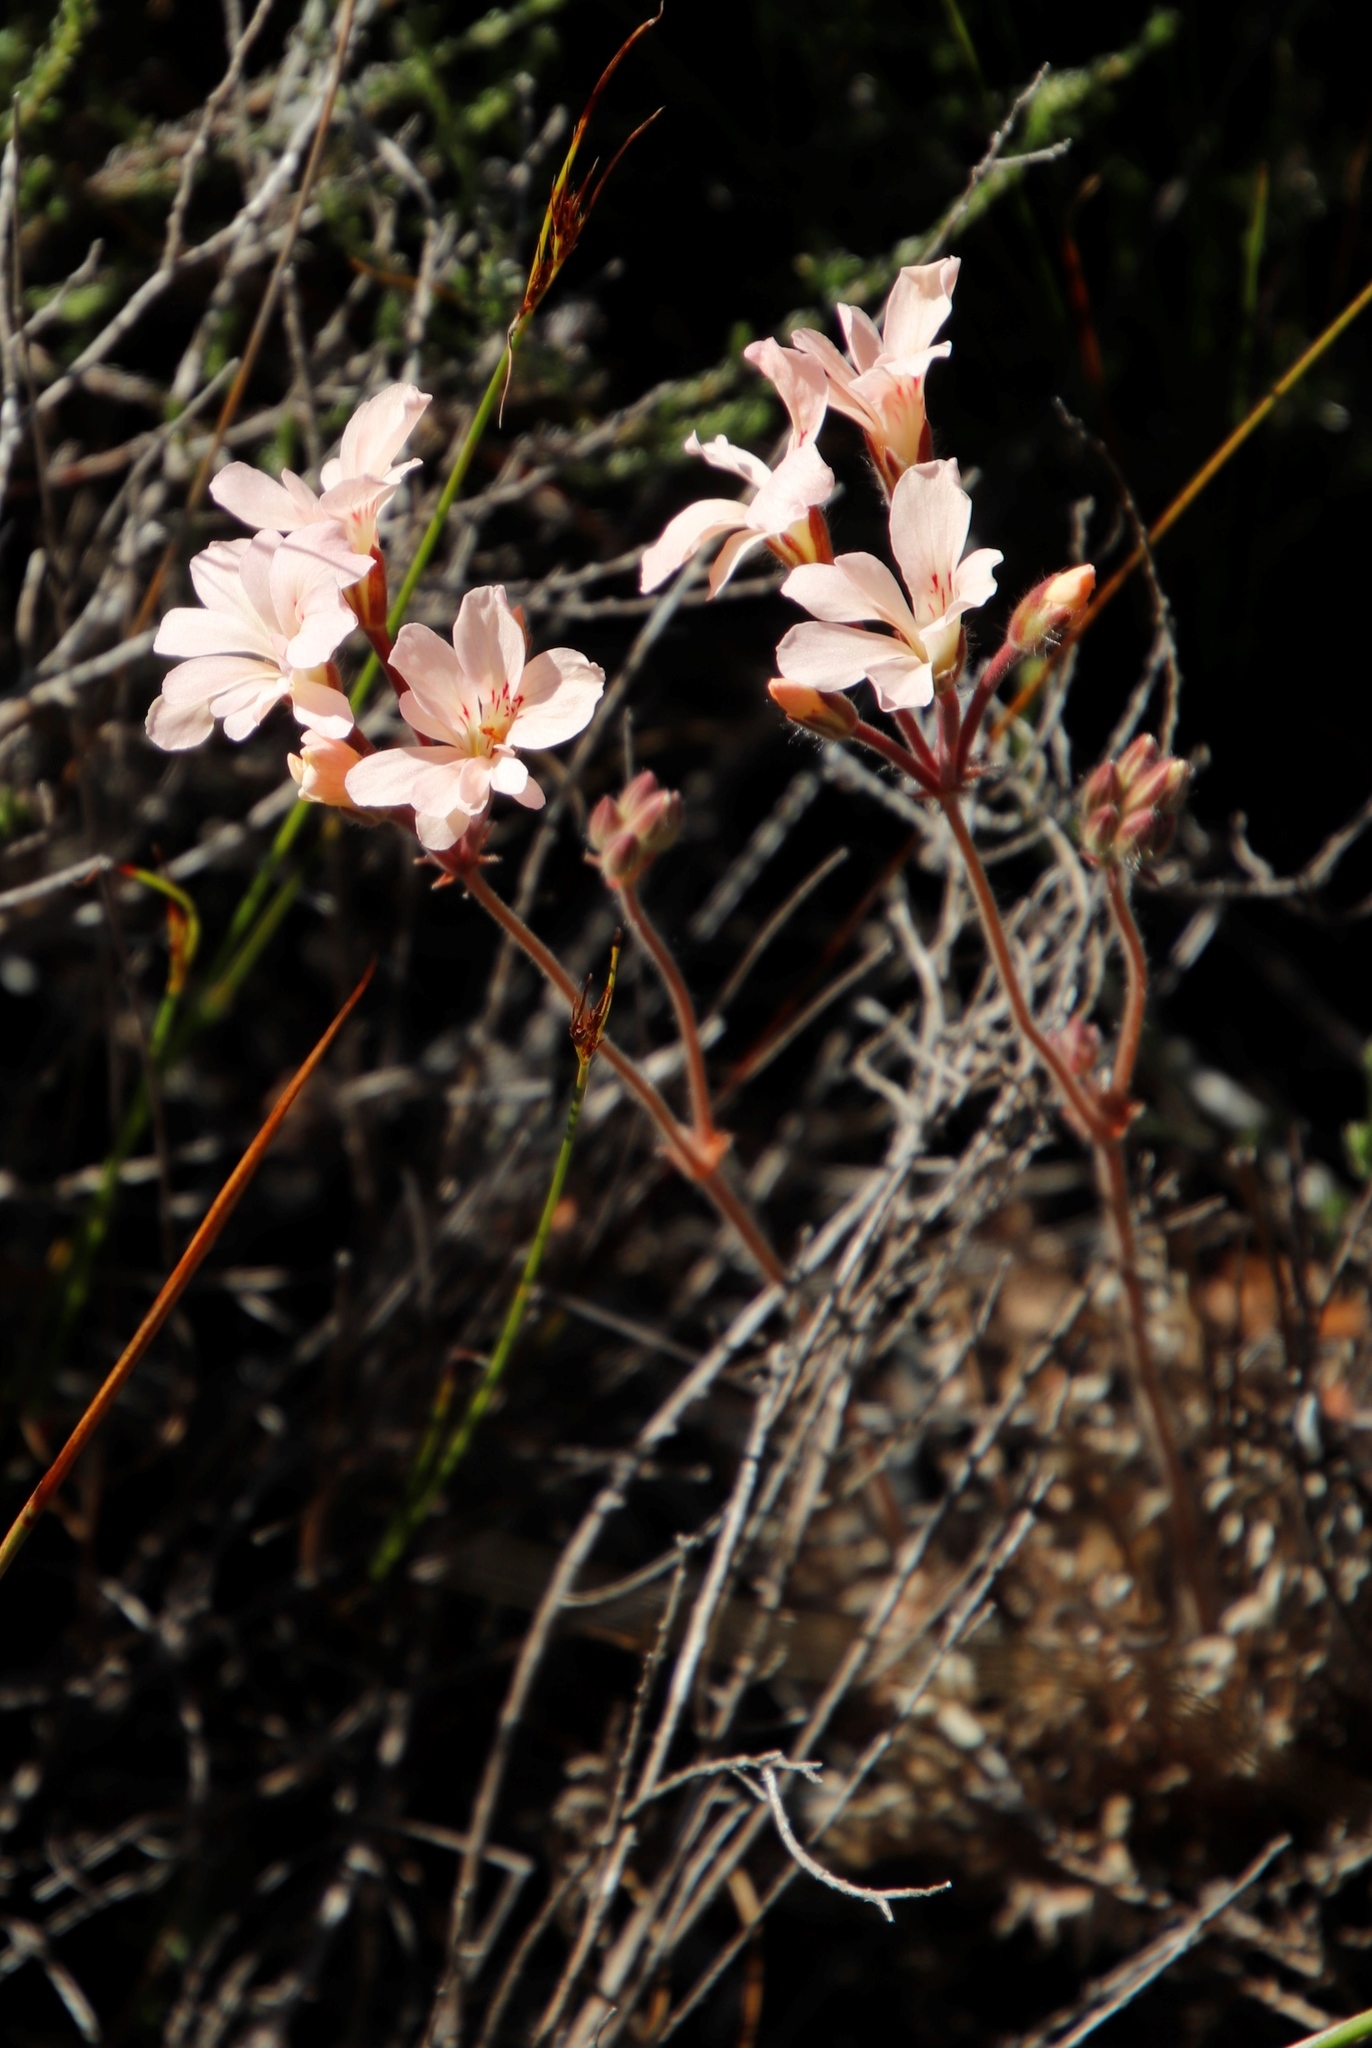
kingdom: Plantae
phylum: Tracheophyta
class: Magnoliopsida
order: Geraniales
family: Geraniaceae
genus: Pelargonium
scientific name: Pelargonium pinnatum
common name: Pinnated pelargonium
